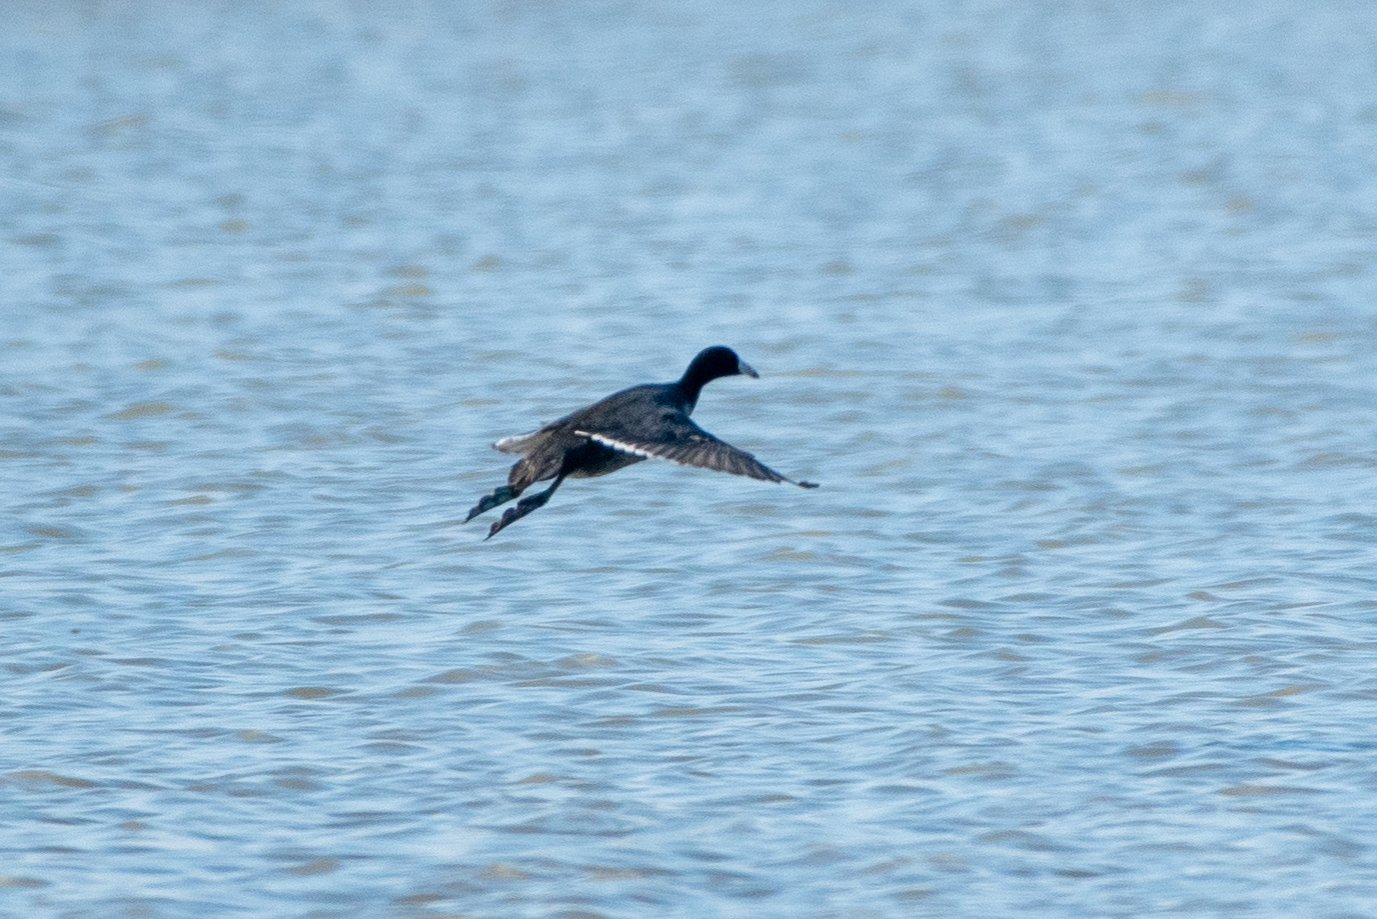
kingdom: Animalia
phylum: Chordata
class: Aves
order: Gruiformes
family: Rallidae
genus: Fulica
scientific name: Fulica americana
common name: American coot
